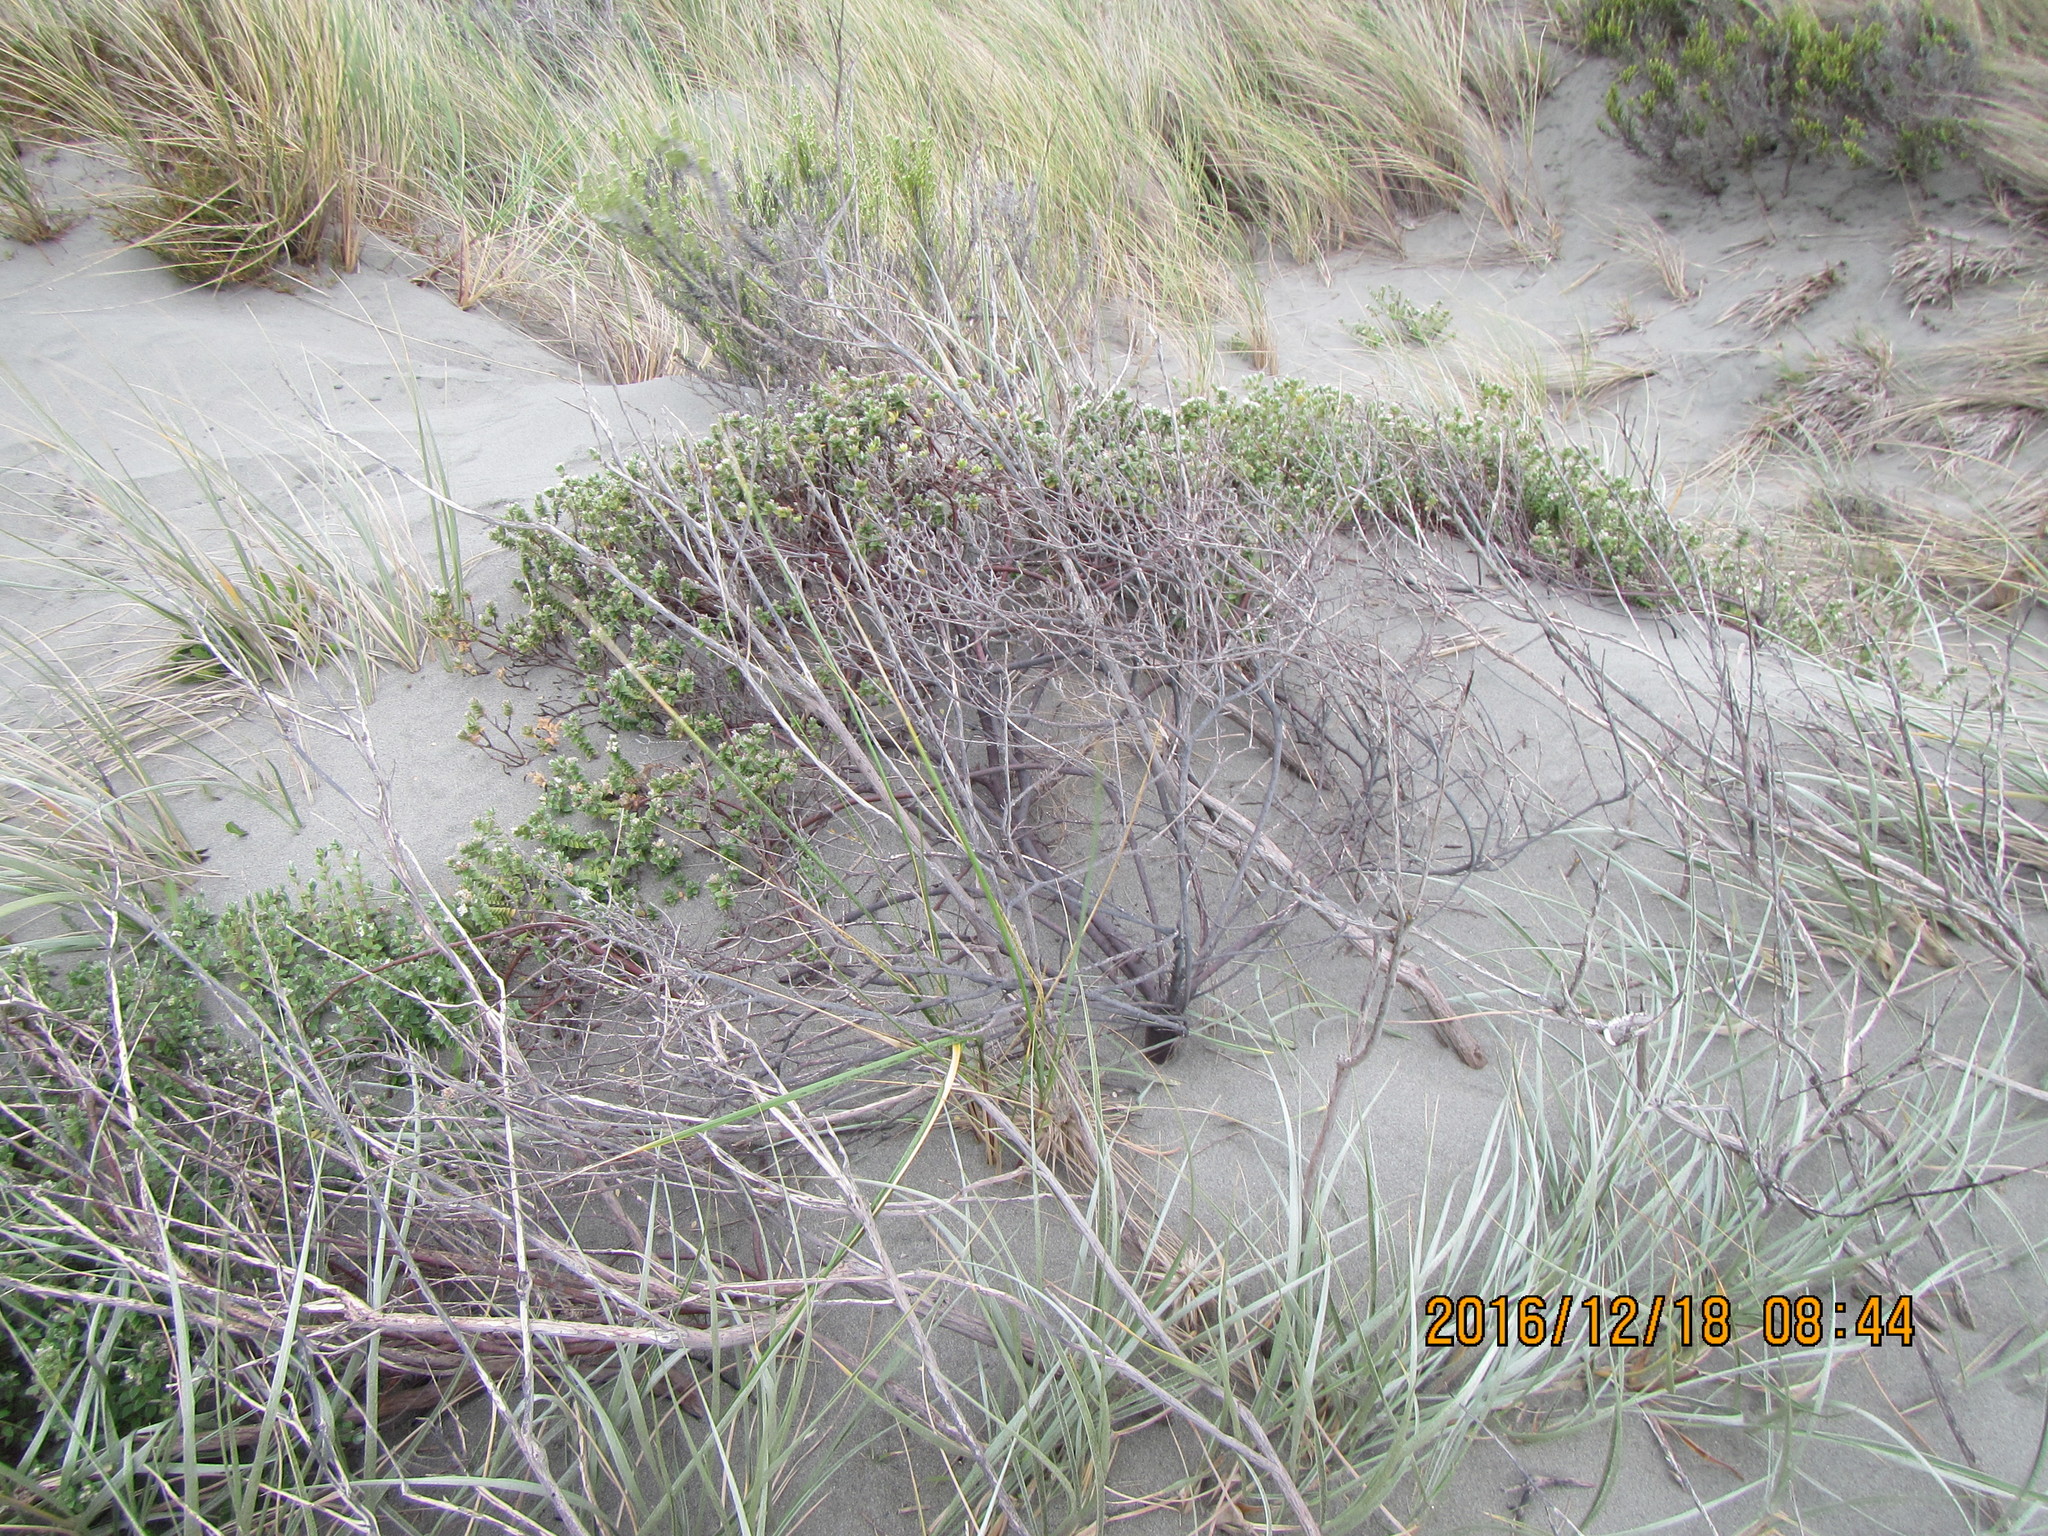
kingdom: Plantae
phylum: Tracheophyta
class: Magnoliopsida
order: Malvales
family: Thymelaeaceae
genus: Pimelea
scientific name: Pimelea villosa
